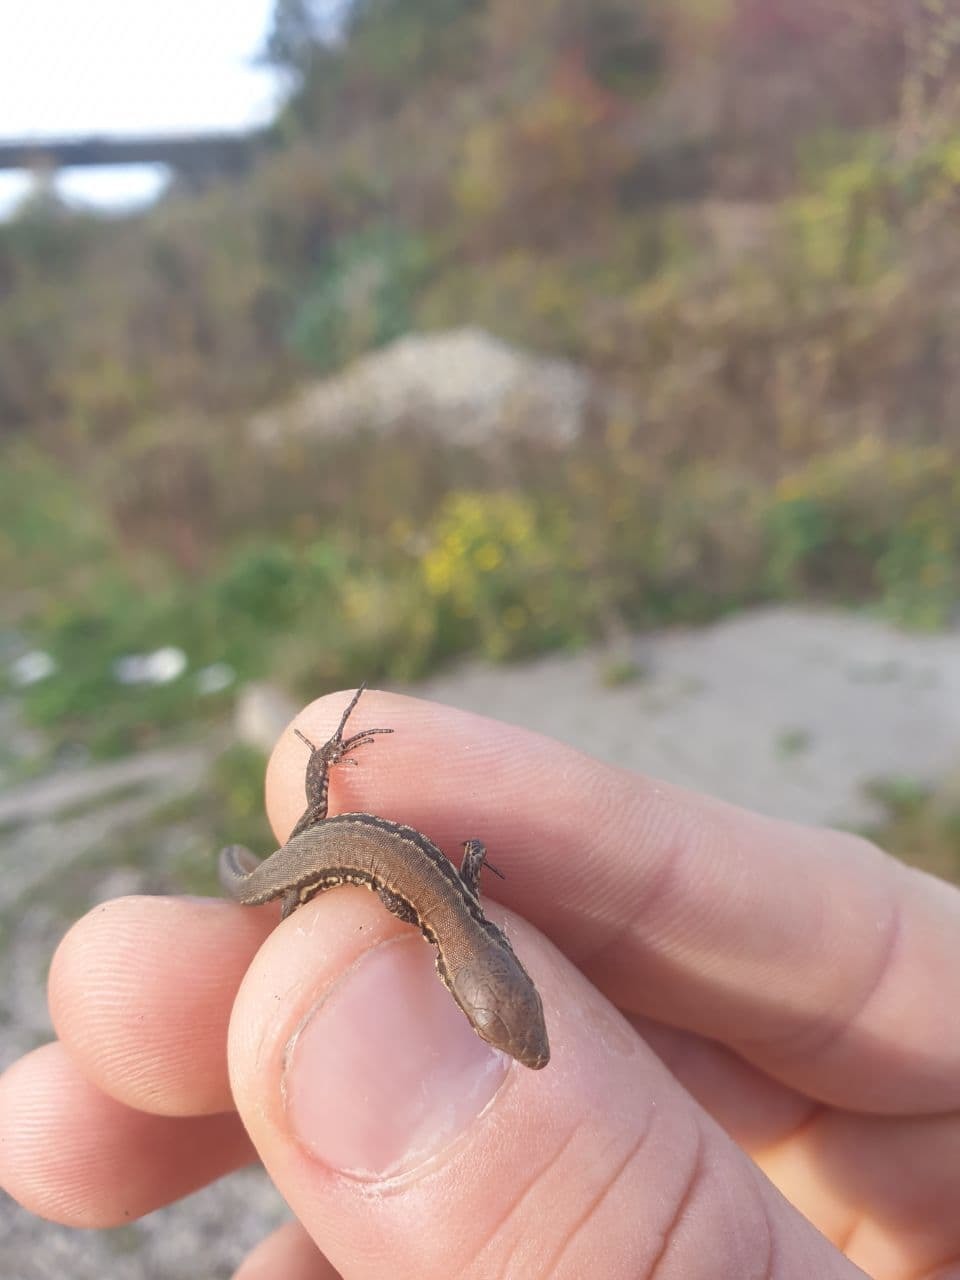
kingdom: Animalia
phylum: Chordata
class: Squamata
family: Lacertidae
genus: Podarcis
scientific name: Podarcis muralis
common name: Common wall lizard
